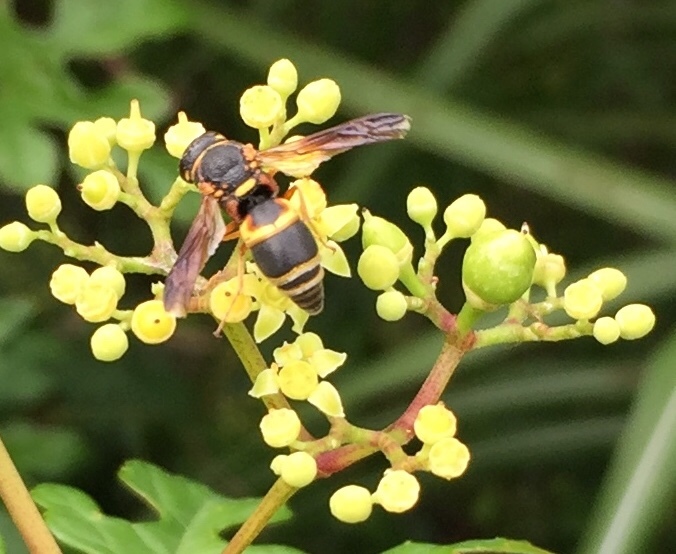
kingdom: Animalia
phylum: Arthropoda
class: Insecta
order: Hymenoptera
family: Eumenidae
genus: Euodynerus
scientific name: Euodynerus hidalgo
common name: Wasp
